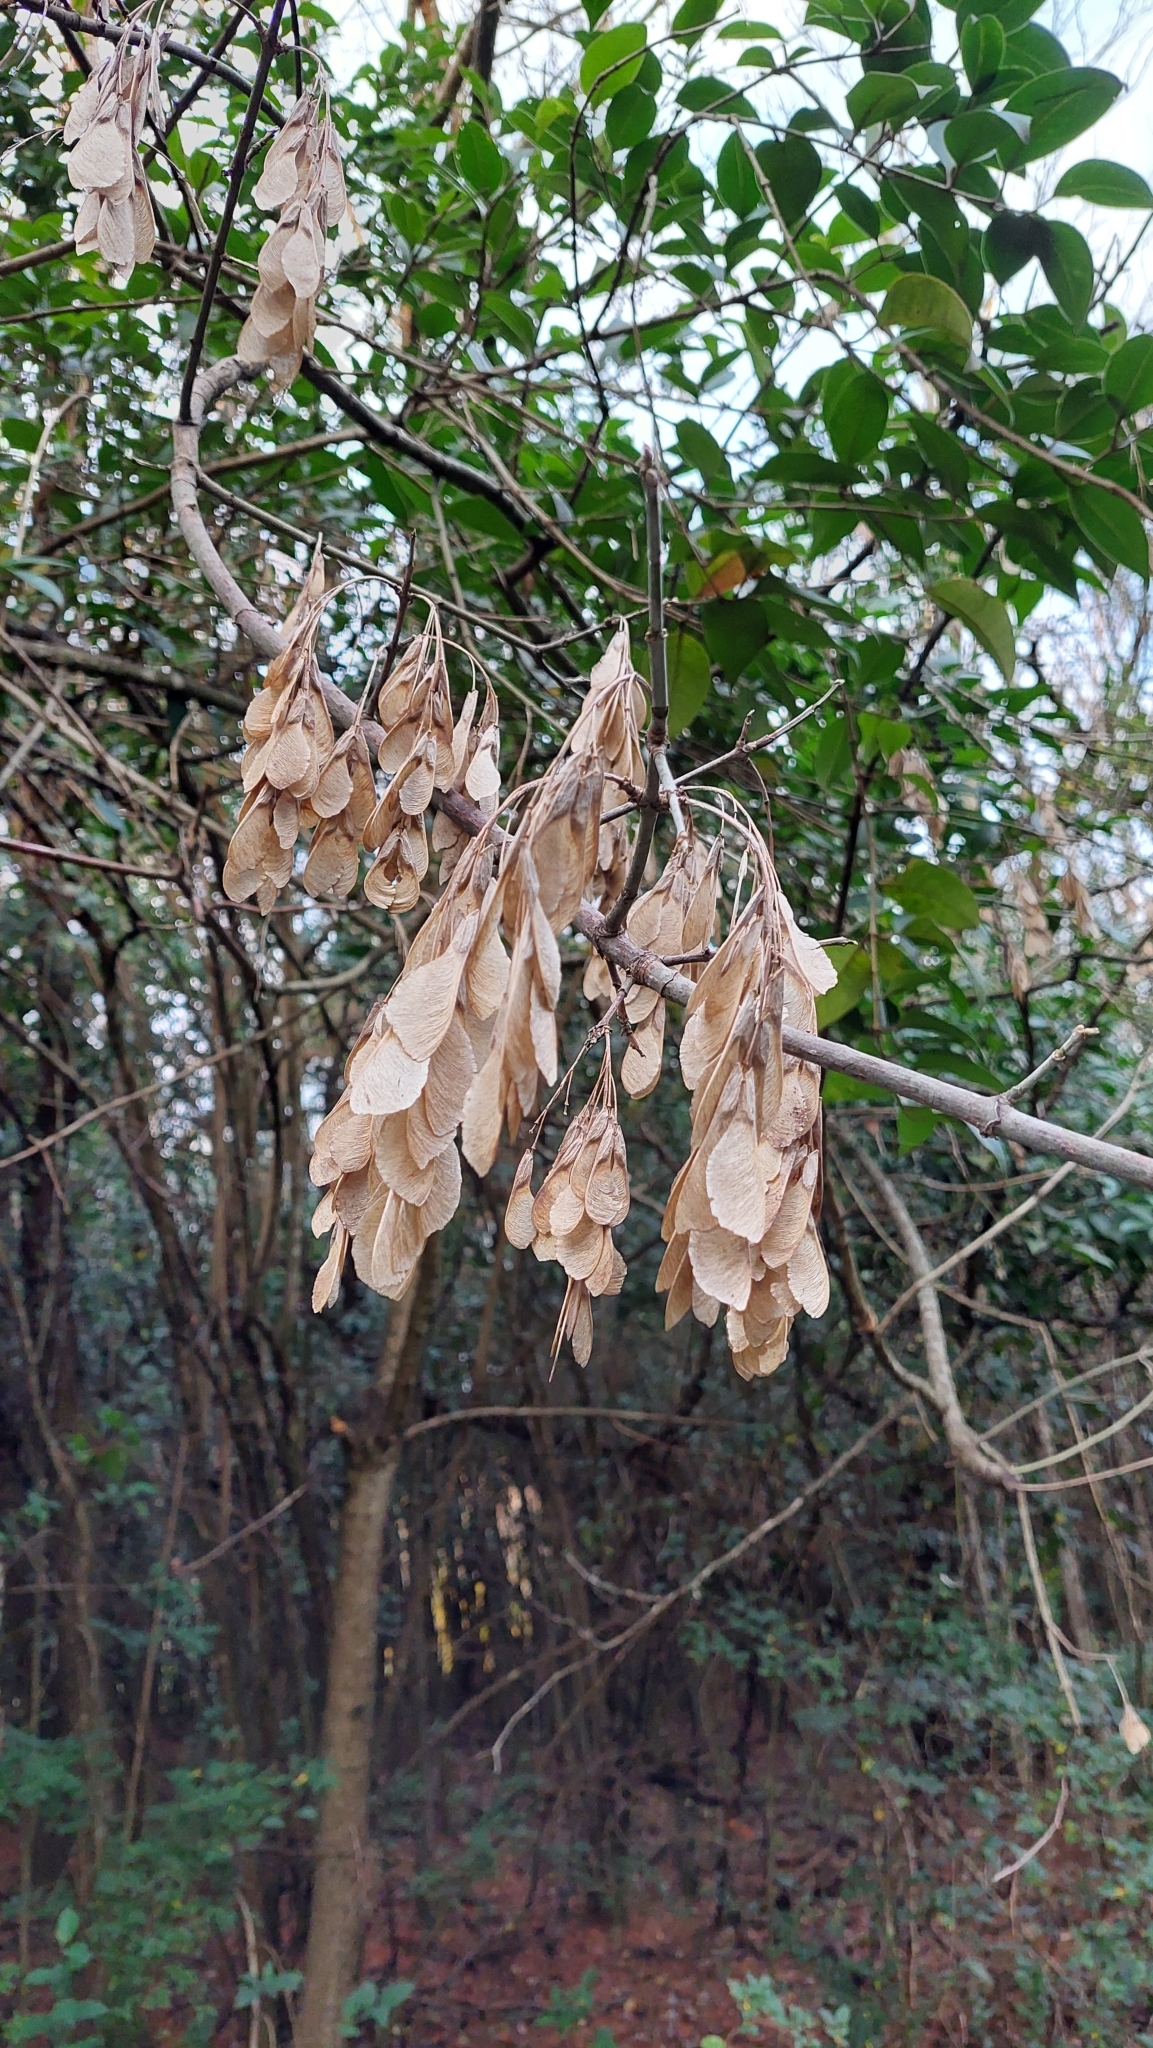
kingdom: Plantae
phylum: Tracheophyta
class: Magnoliopsida
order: Sapindales
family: Sapindaceae
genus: Acer
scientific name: Acer negundo
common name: Ashleaf maple
